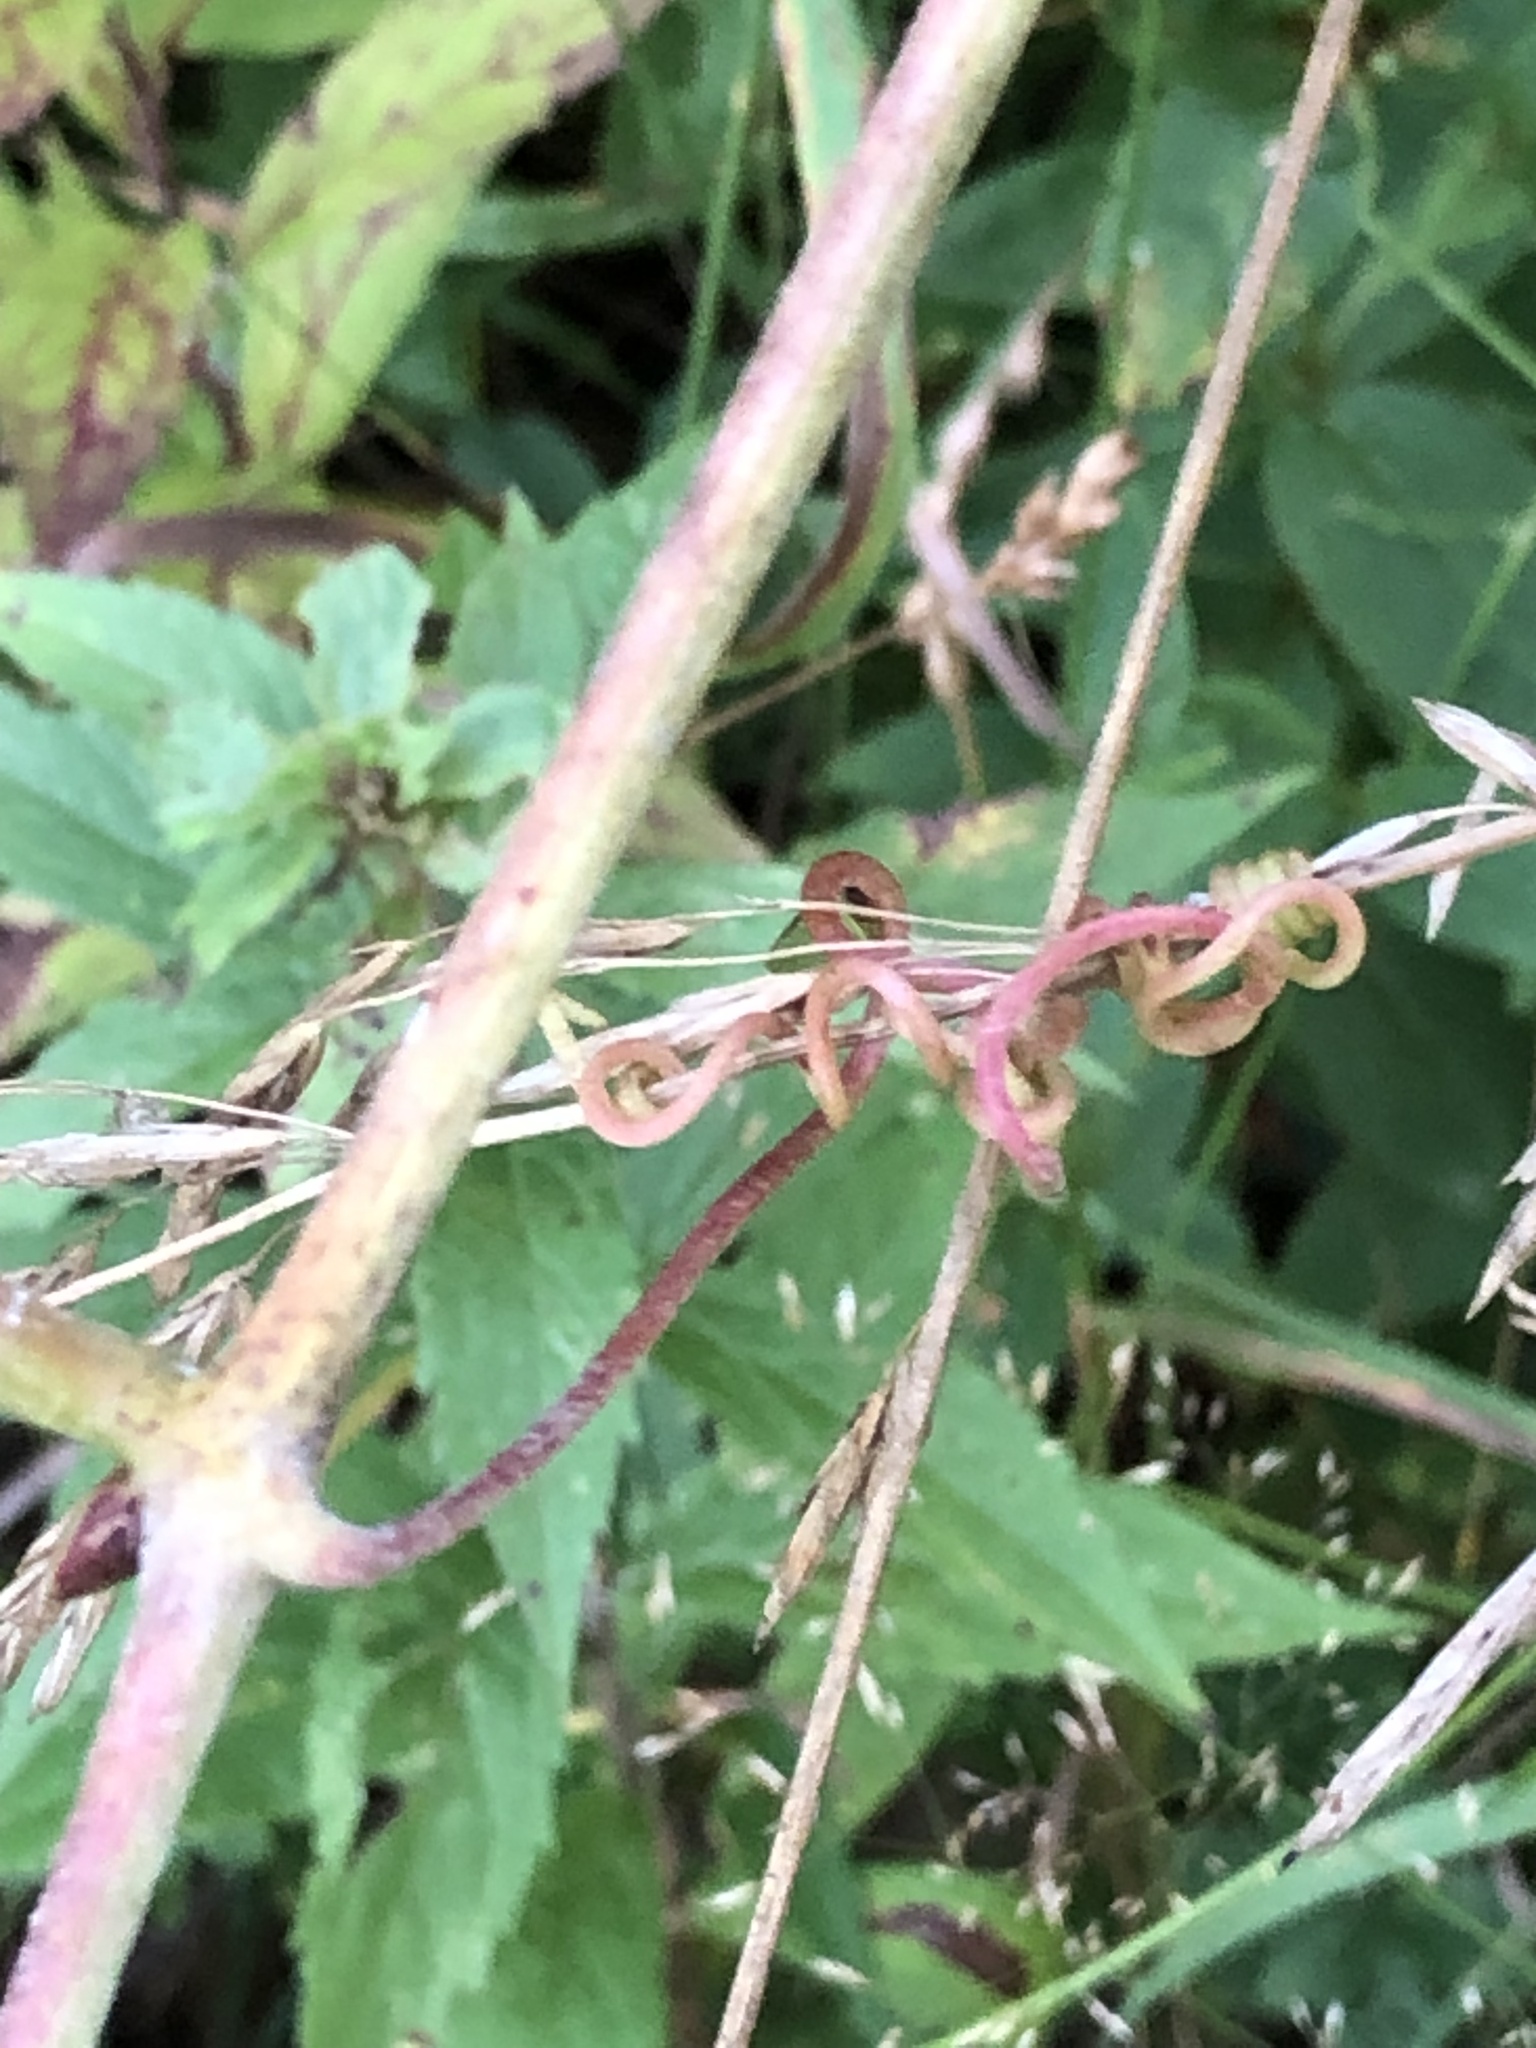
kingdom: Plantae
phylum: Tracheophyta
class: Magnoliopsida
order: Vitales
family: Vitaceae
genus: Vitis
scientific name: Vitis labrusca
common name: Concord grape
